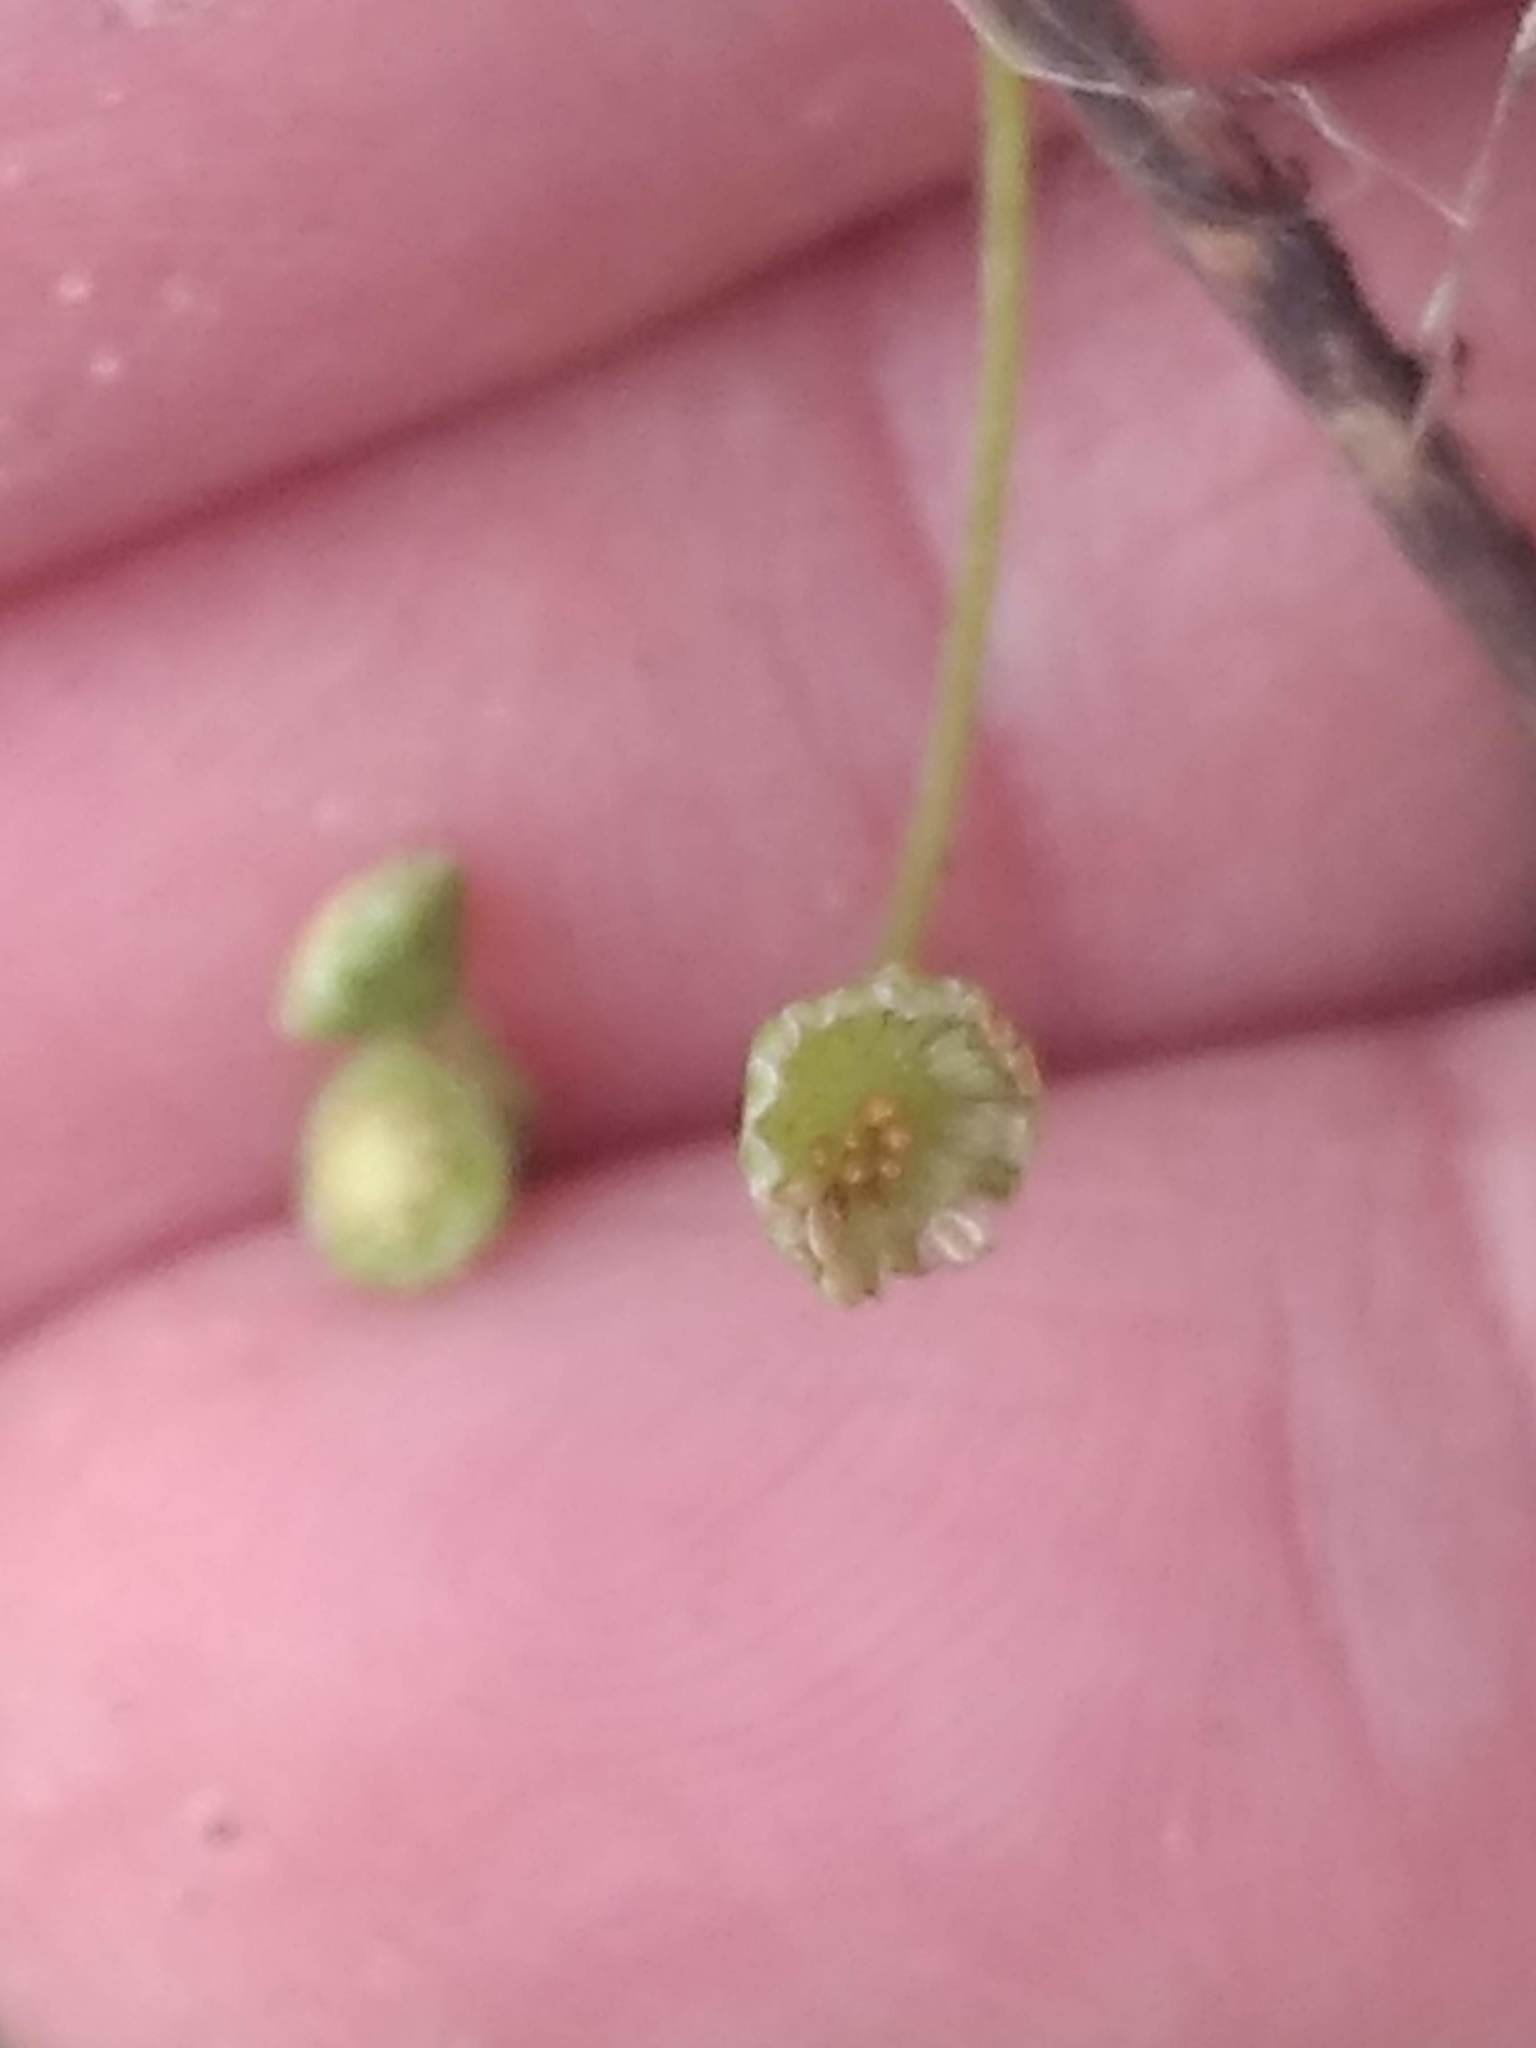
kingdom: Plantae
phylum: Tracheophyta
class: Magnoliopsida
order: Asterales
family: Asteraceae
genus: Cotula
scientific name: Cotula australis
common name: Australian waterbuttons
